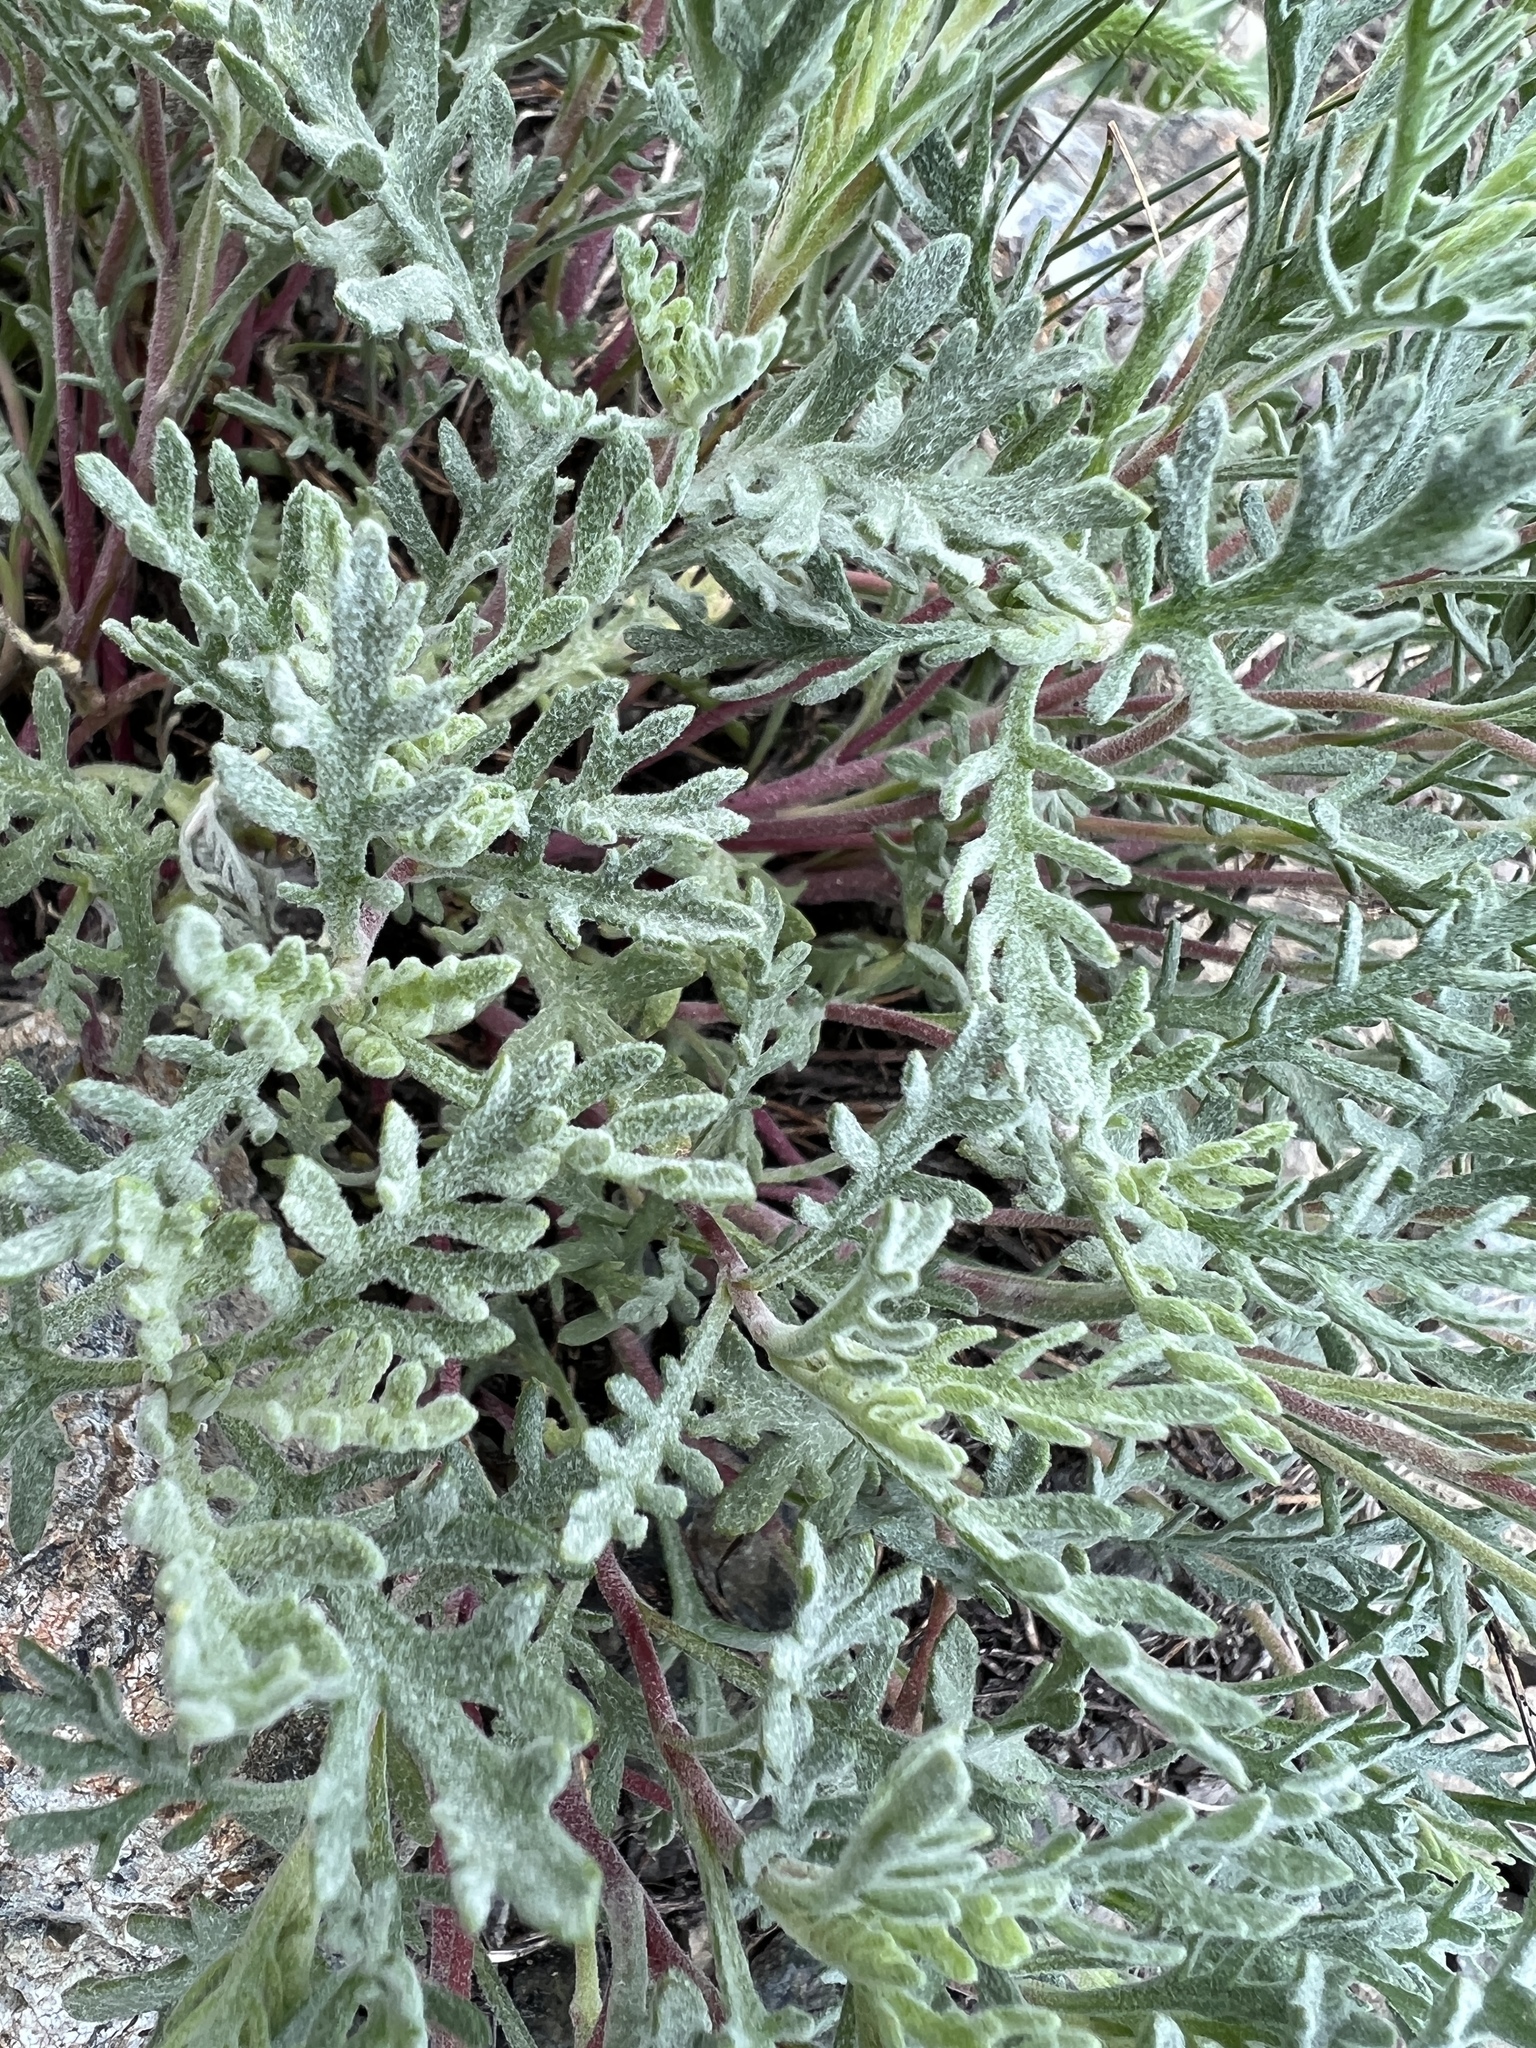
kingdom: Plantae
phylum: Tracheophyta
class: Magnoliopsida
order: Asterales
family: Asteraceae
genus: Chaenactis
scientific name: Chaenactis thompsonii
